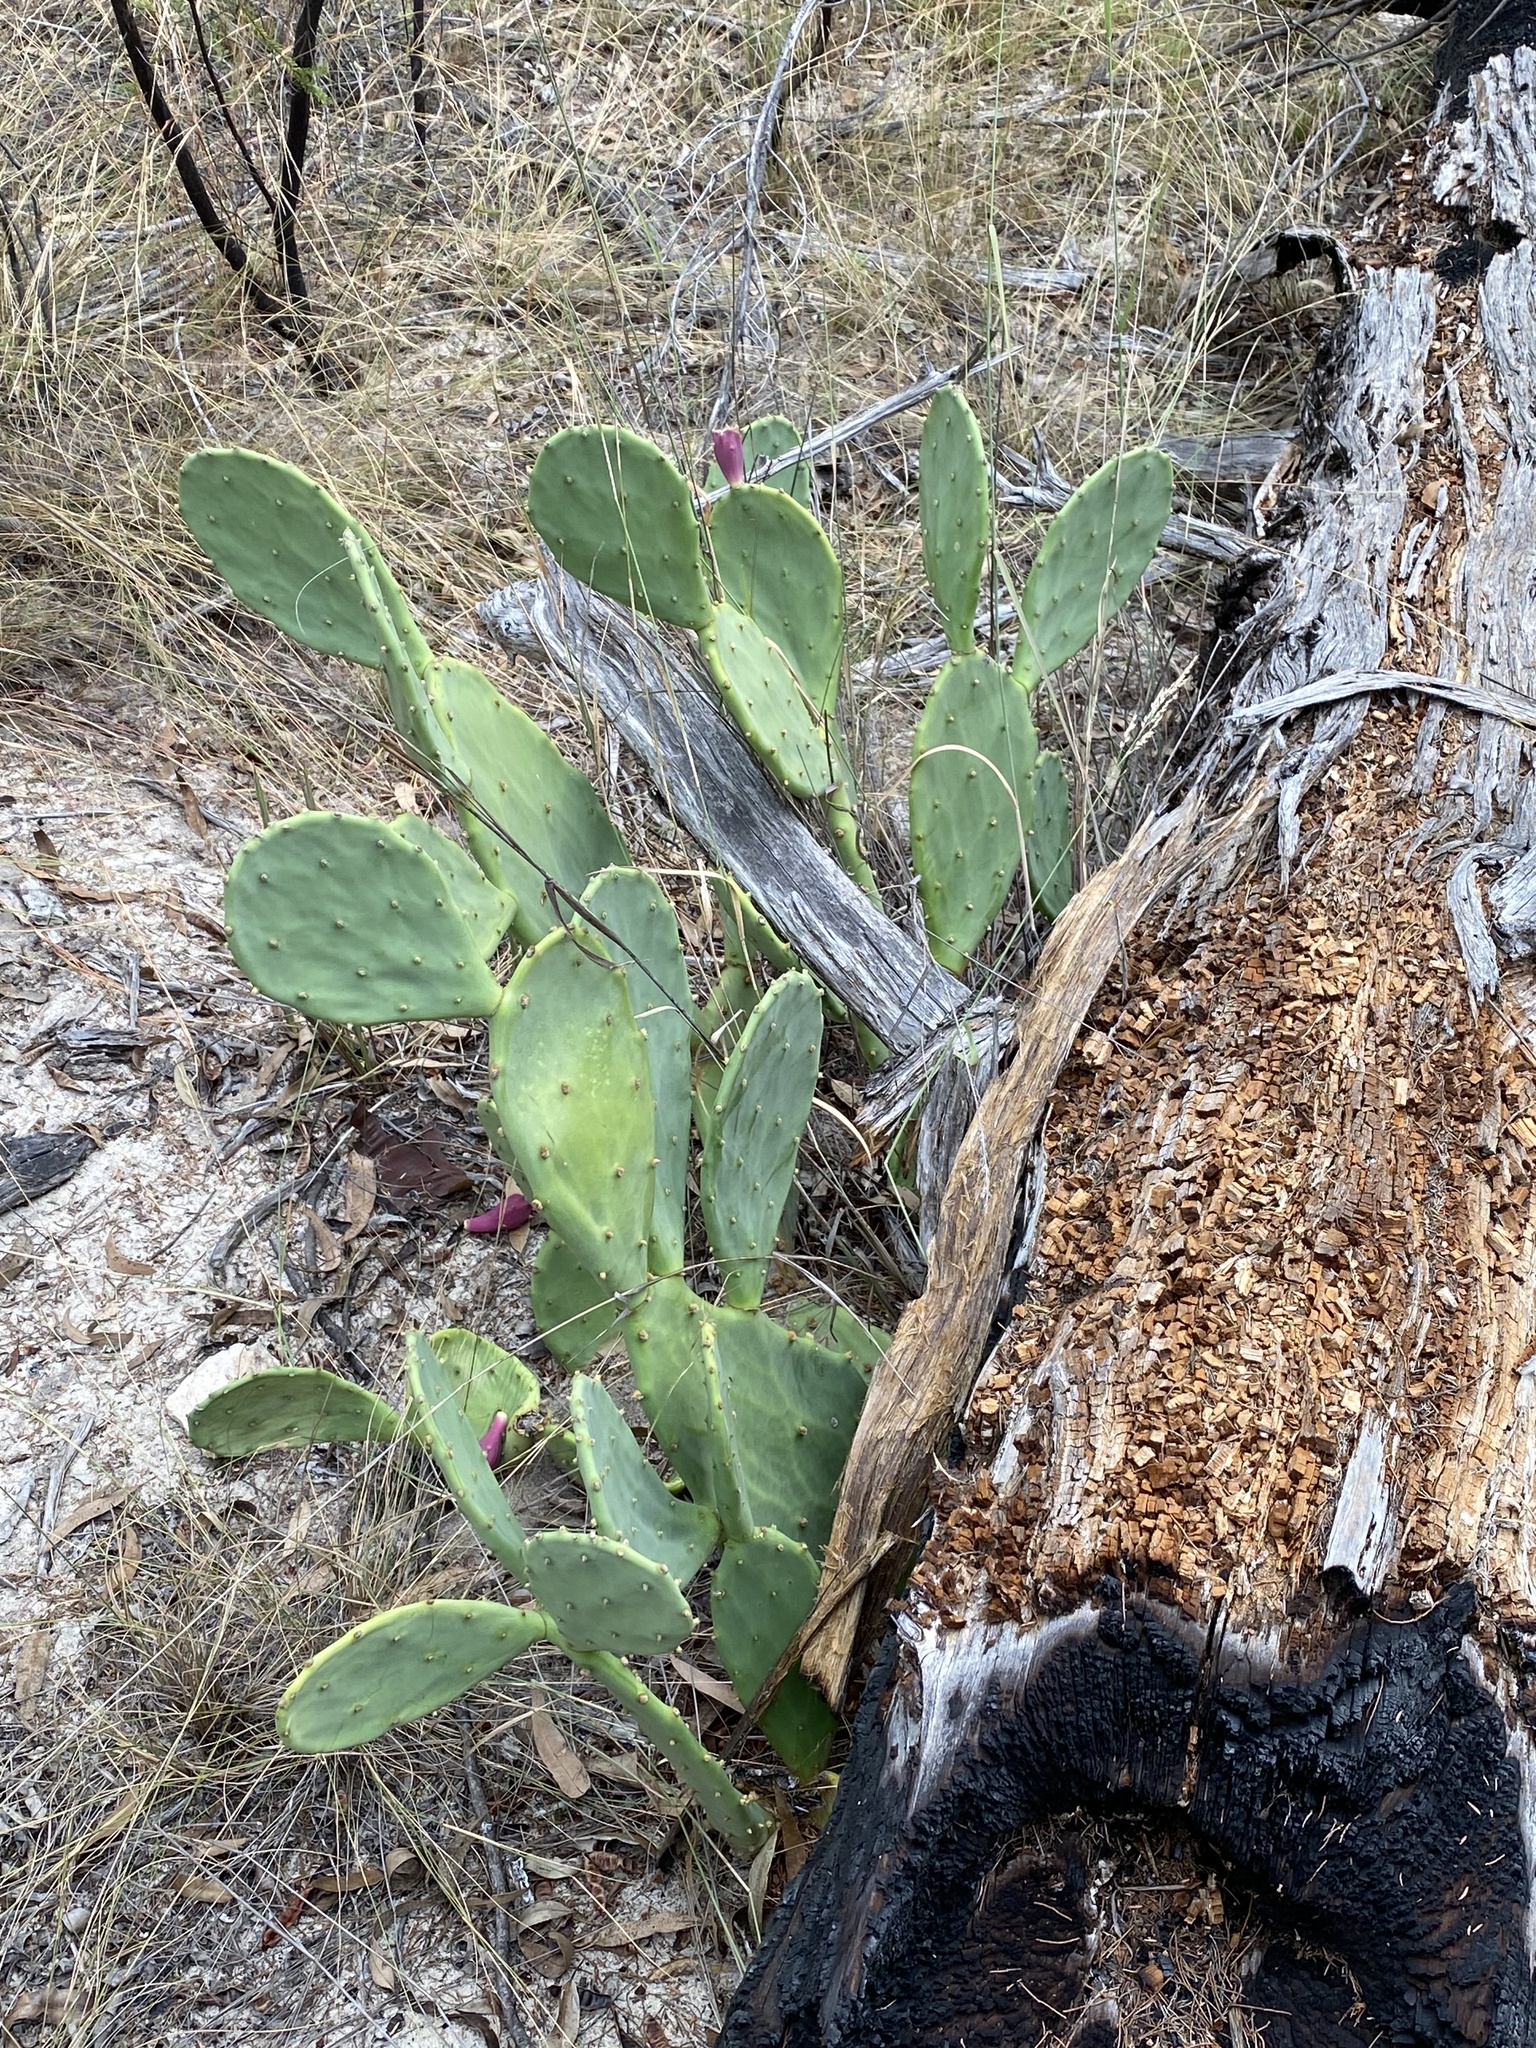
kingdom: Plantae
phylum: Tracheophyta
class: Magnoliopsida
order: Caryophyllales
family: Cactaceae
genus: Opuntia
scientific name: Opuntia stricta
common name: Erect pricklypear
